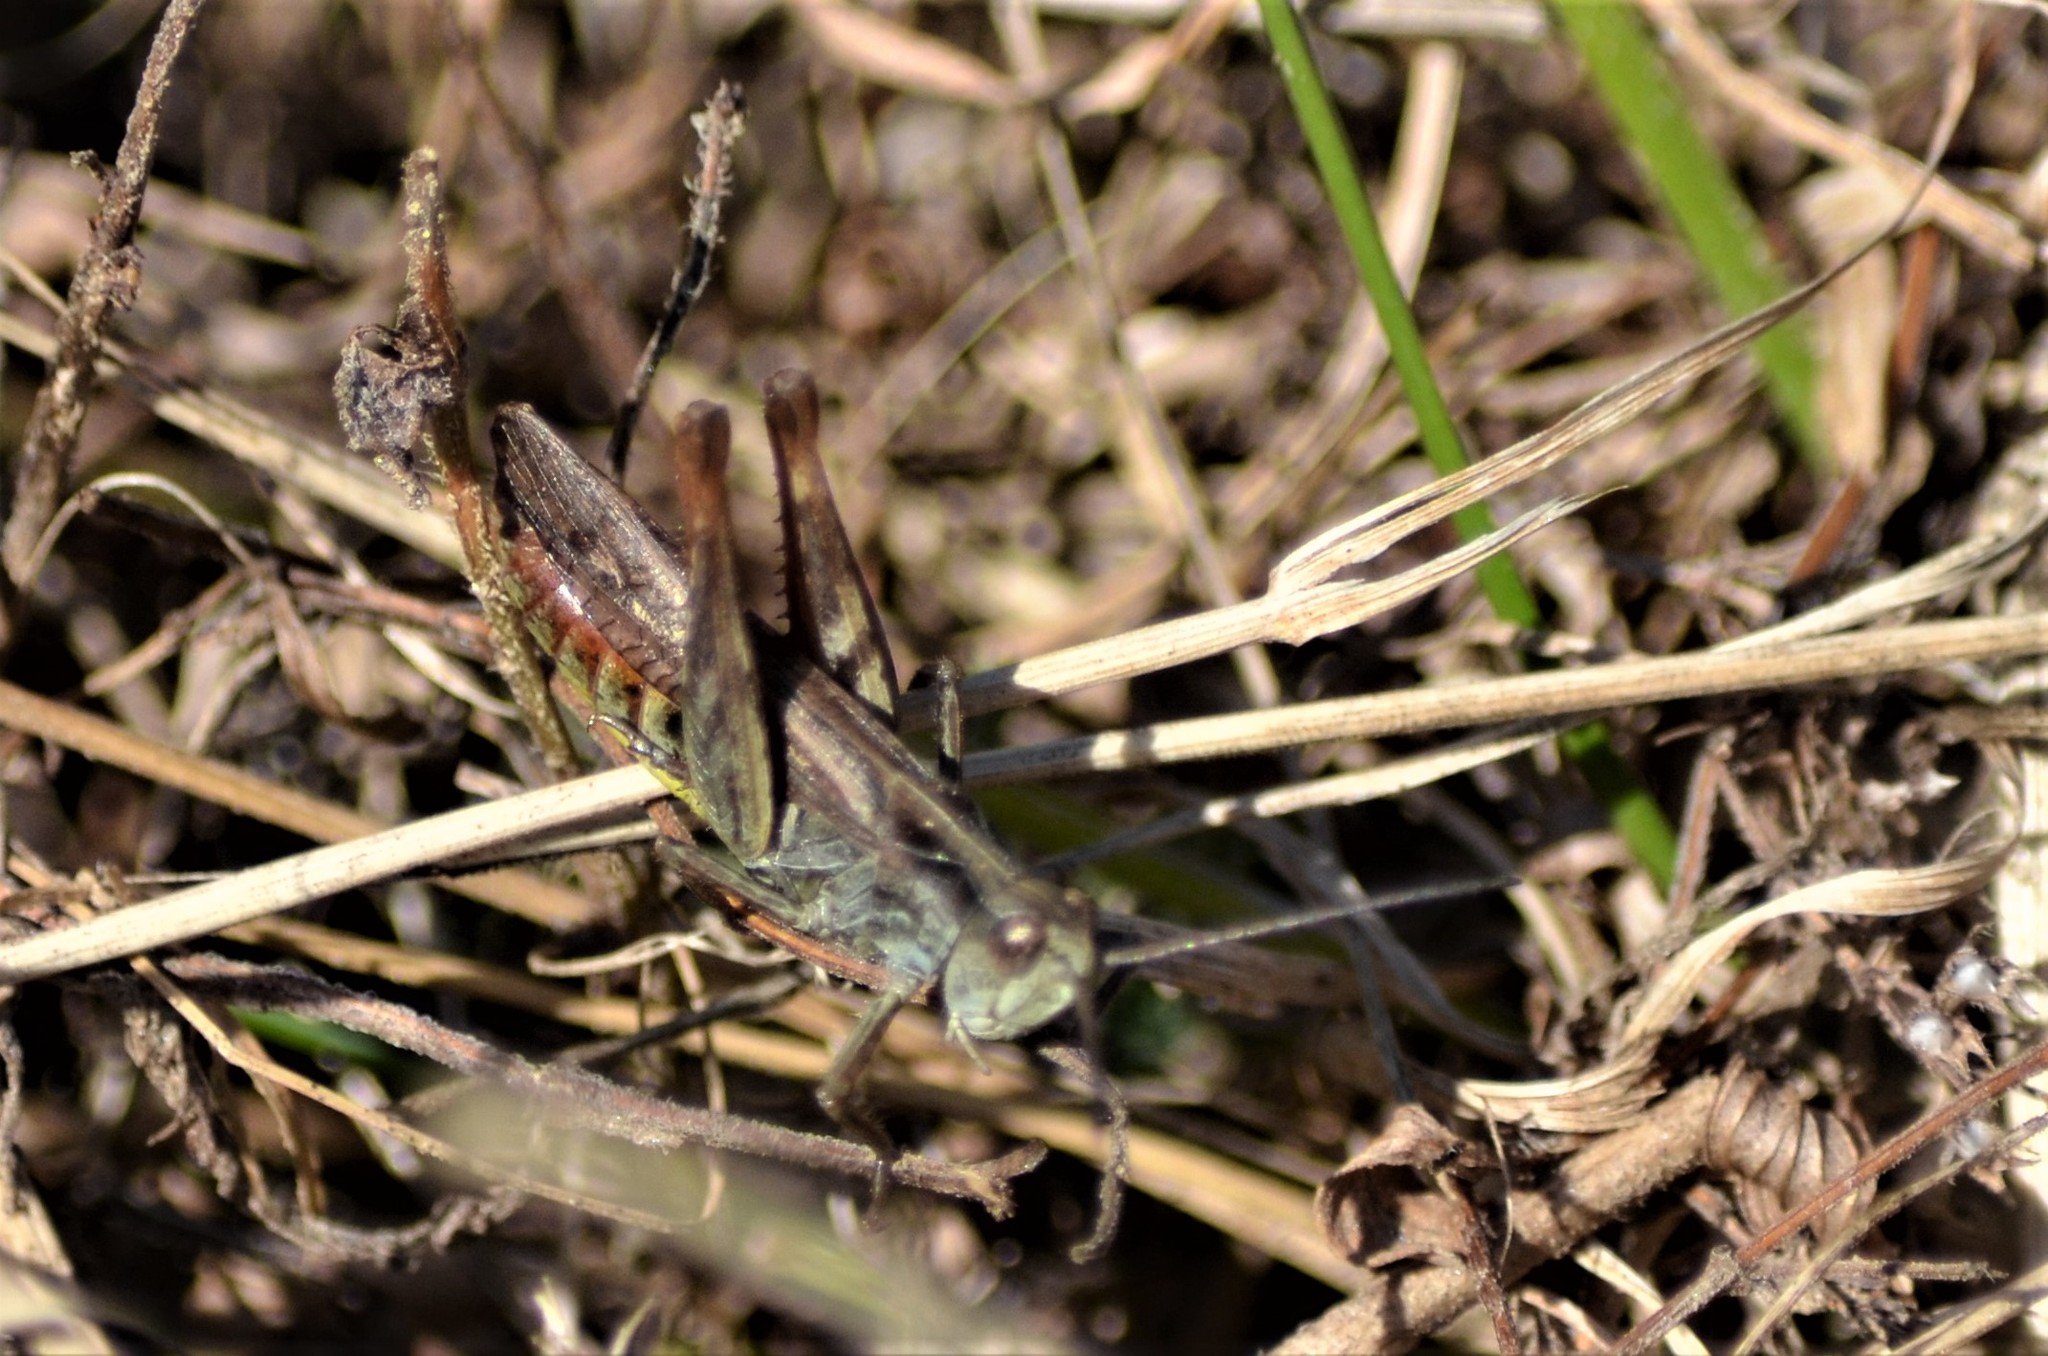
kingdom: Animalia
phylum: Arthropoda
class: Insecta
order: Orthoptera
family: Acrididae
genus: Chorthippus
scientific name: Chorthippus biguttulus
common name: Bow-winged grasshopper
